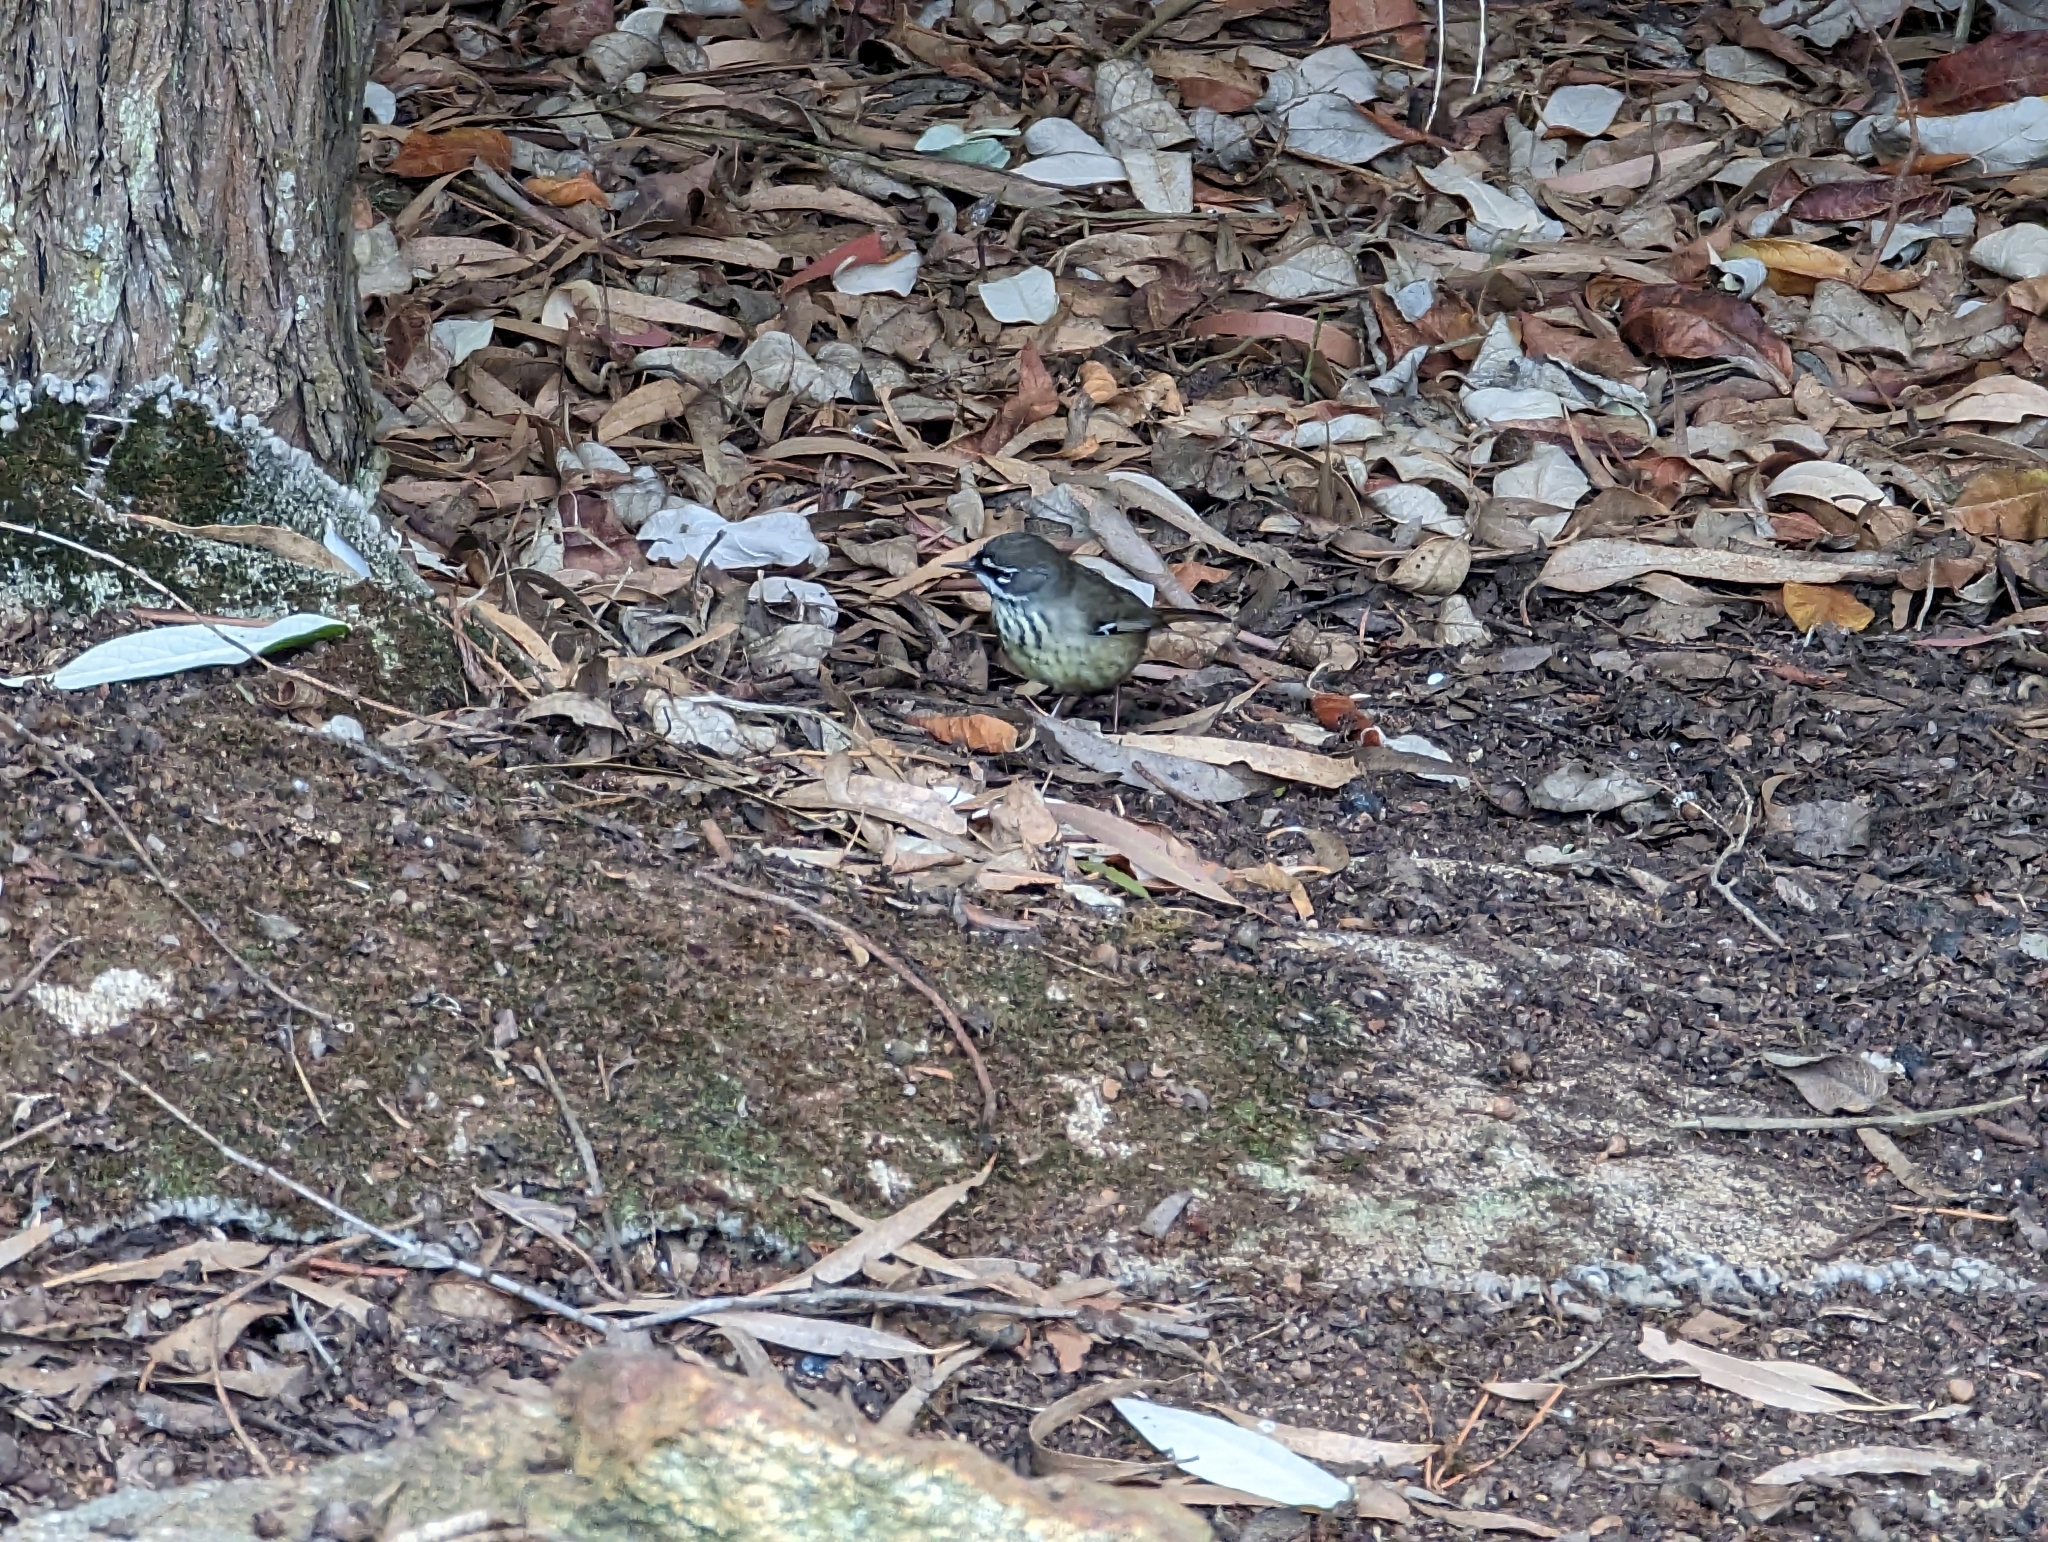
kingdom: Animalia
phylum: Chordata
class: Aves
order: Passeriformes
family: Acanthizidae
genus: Sericornis
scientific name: Sericornis maculatus
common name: Spotted scrubwren
